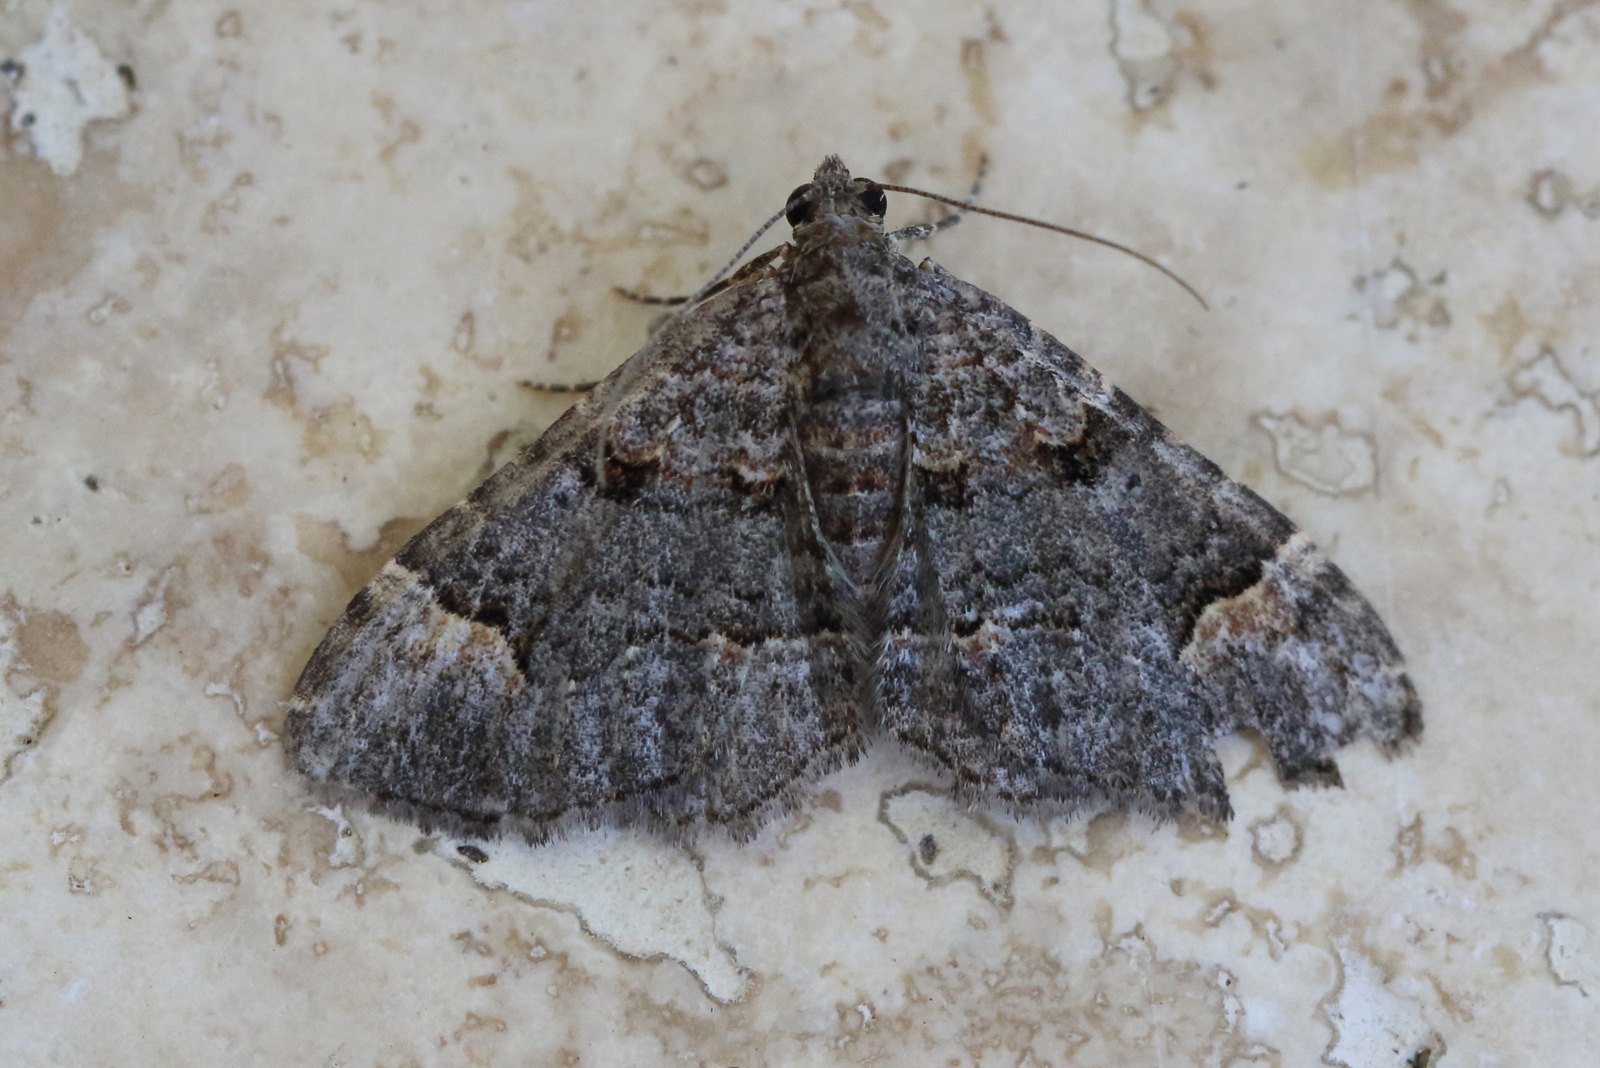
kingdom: Animalia
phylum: Arthropoda
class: Insecta
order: Lepidoptera
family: Geometridae
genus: Epyaxa
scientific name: Epyaxa sodaliata
